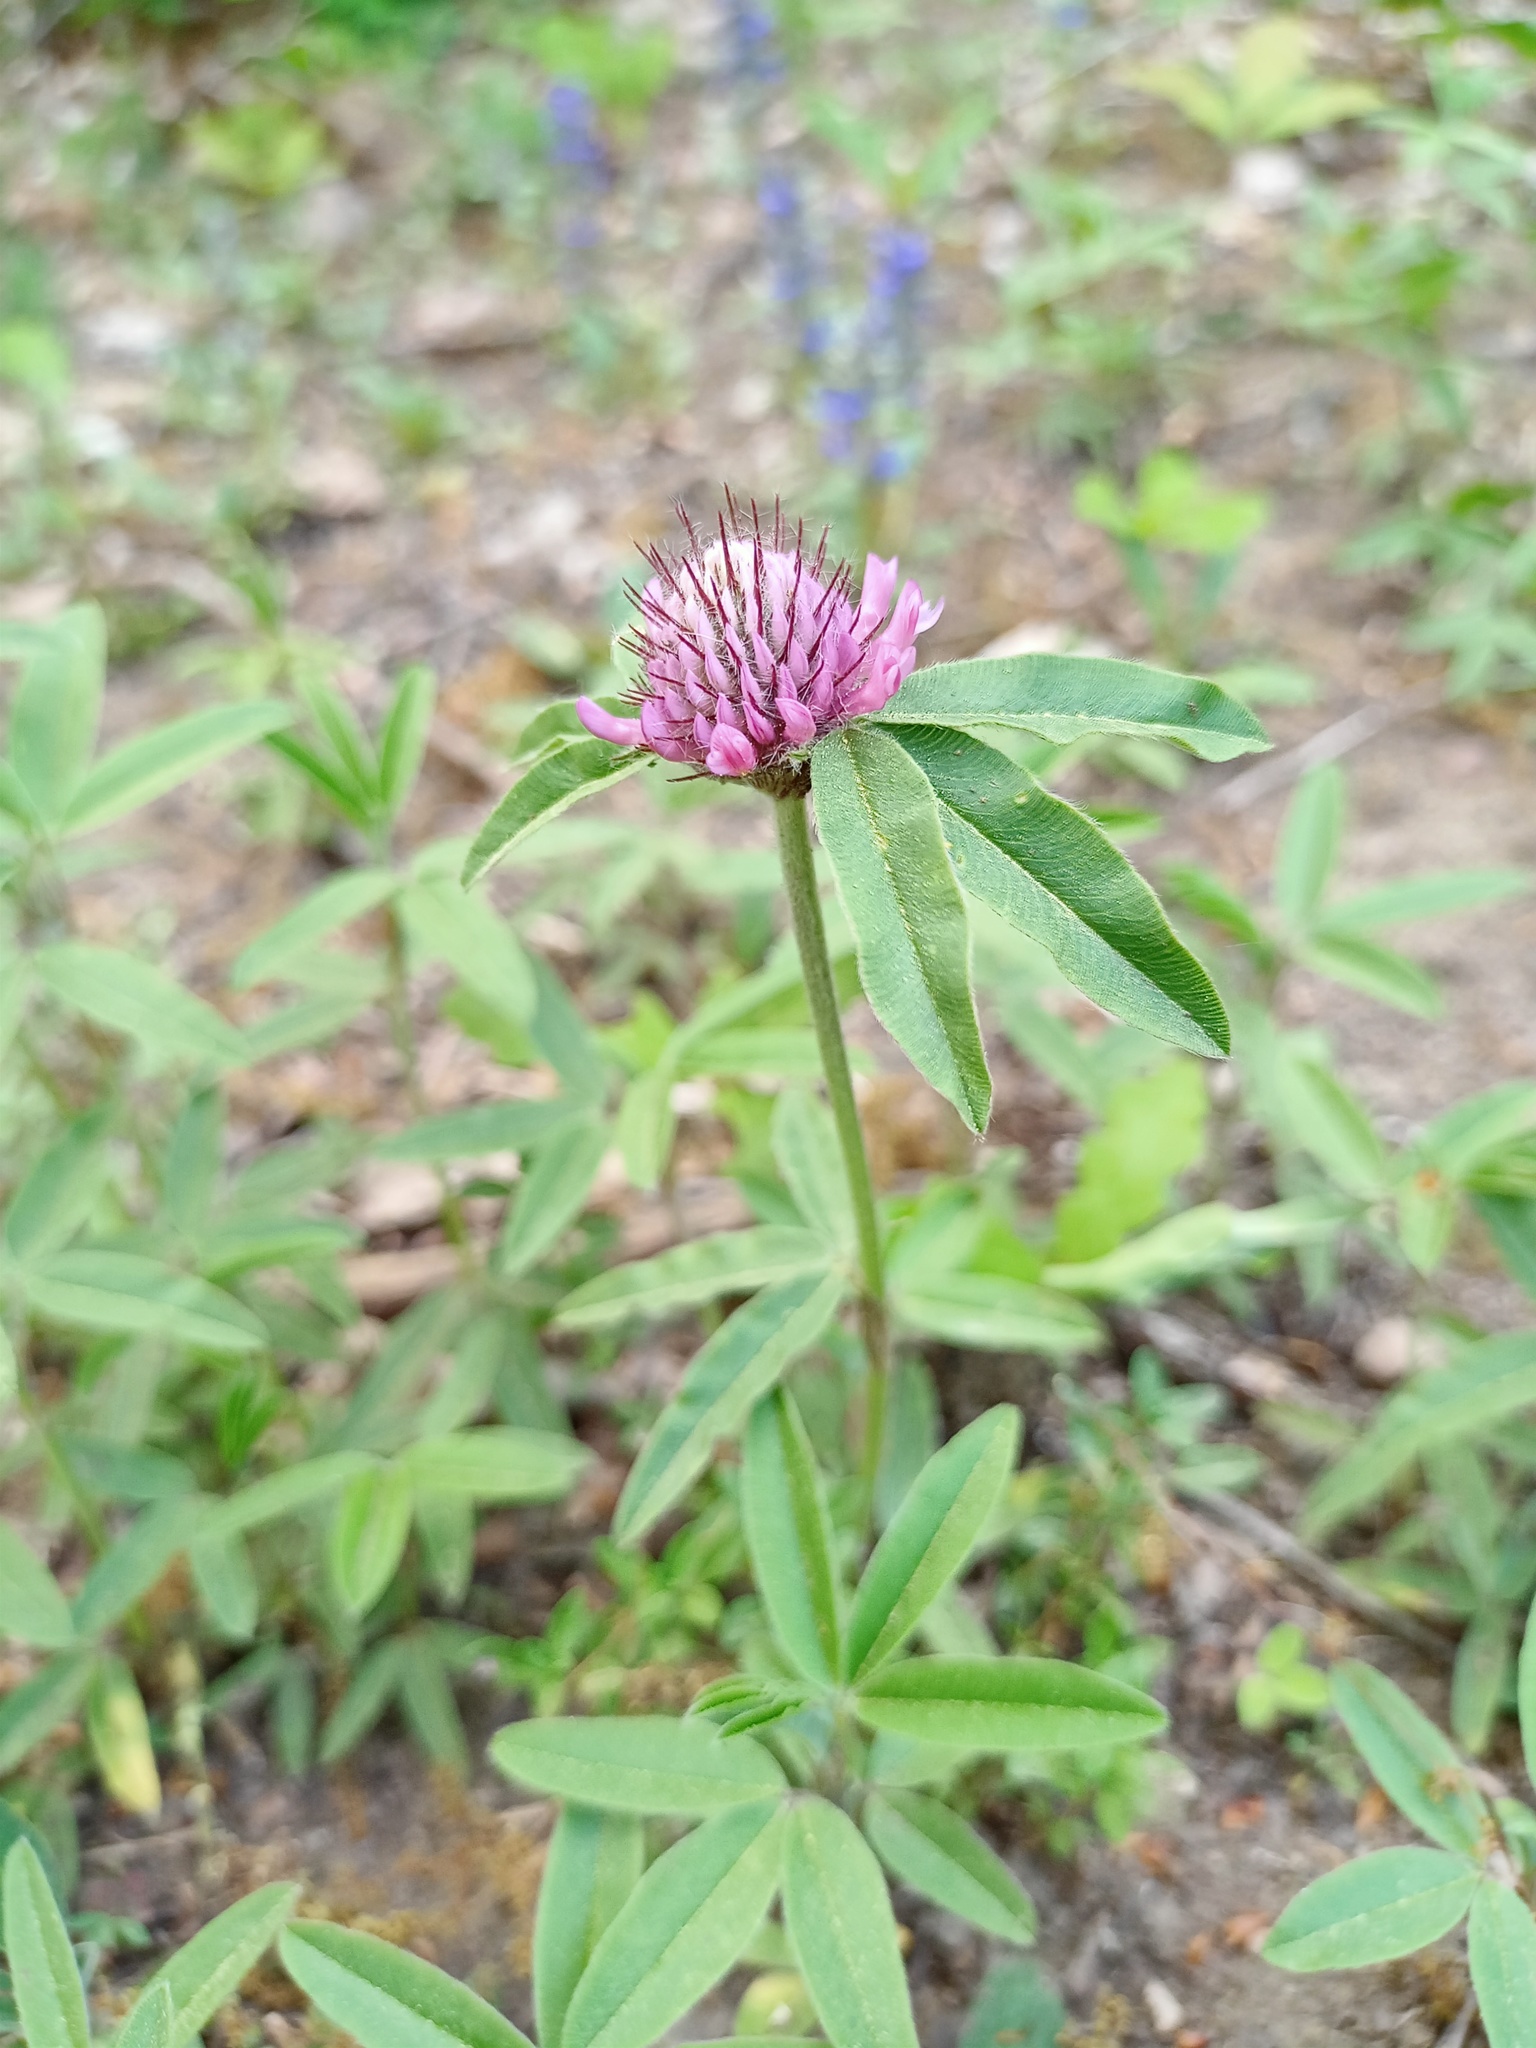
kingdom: Plantae
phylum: Tracheophyta
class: Magnoliopsida
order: Fabales
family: Fabaceae
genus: Trifolium
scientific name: Trifolium alpestre
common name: Owl-head clover
